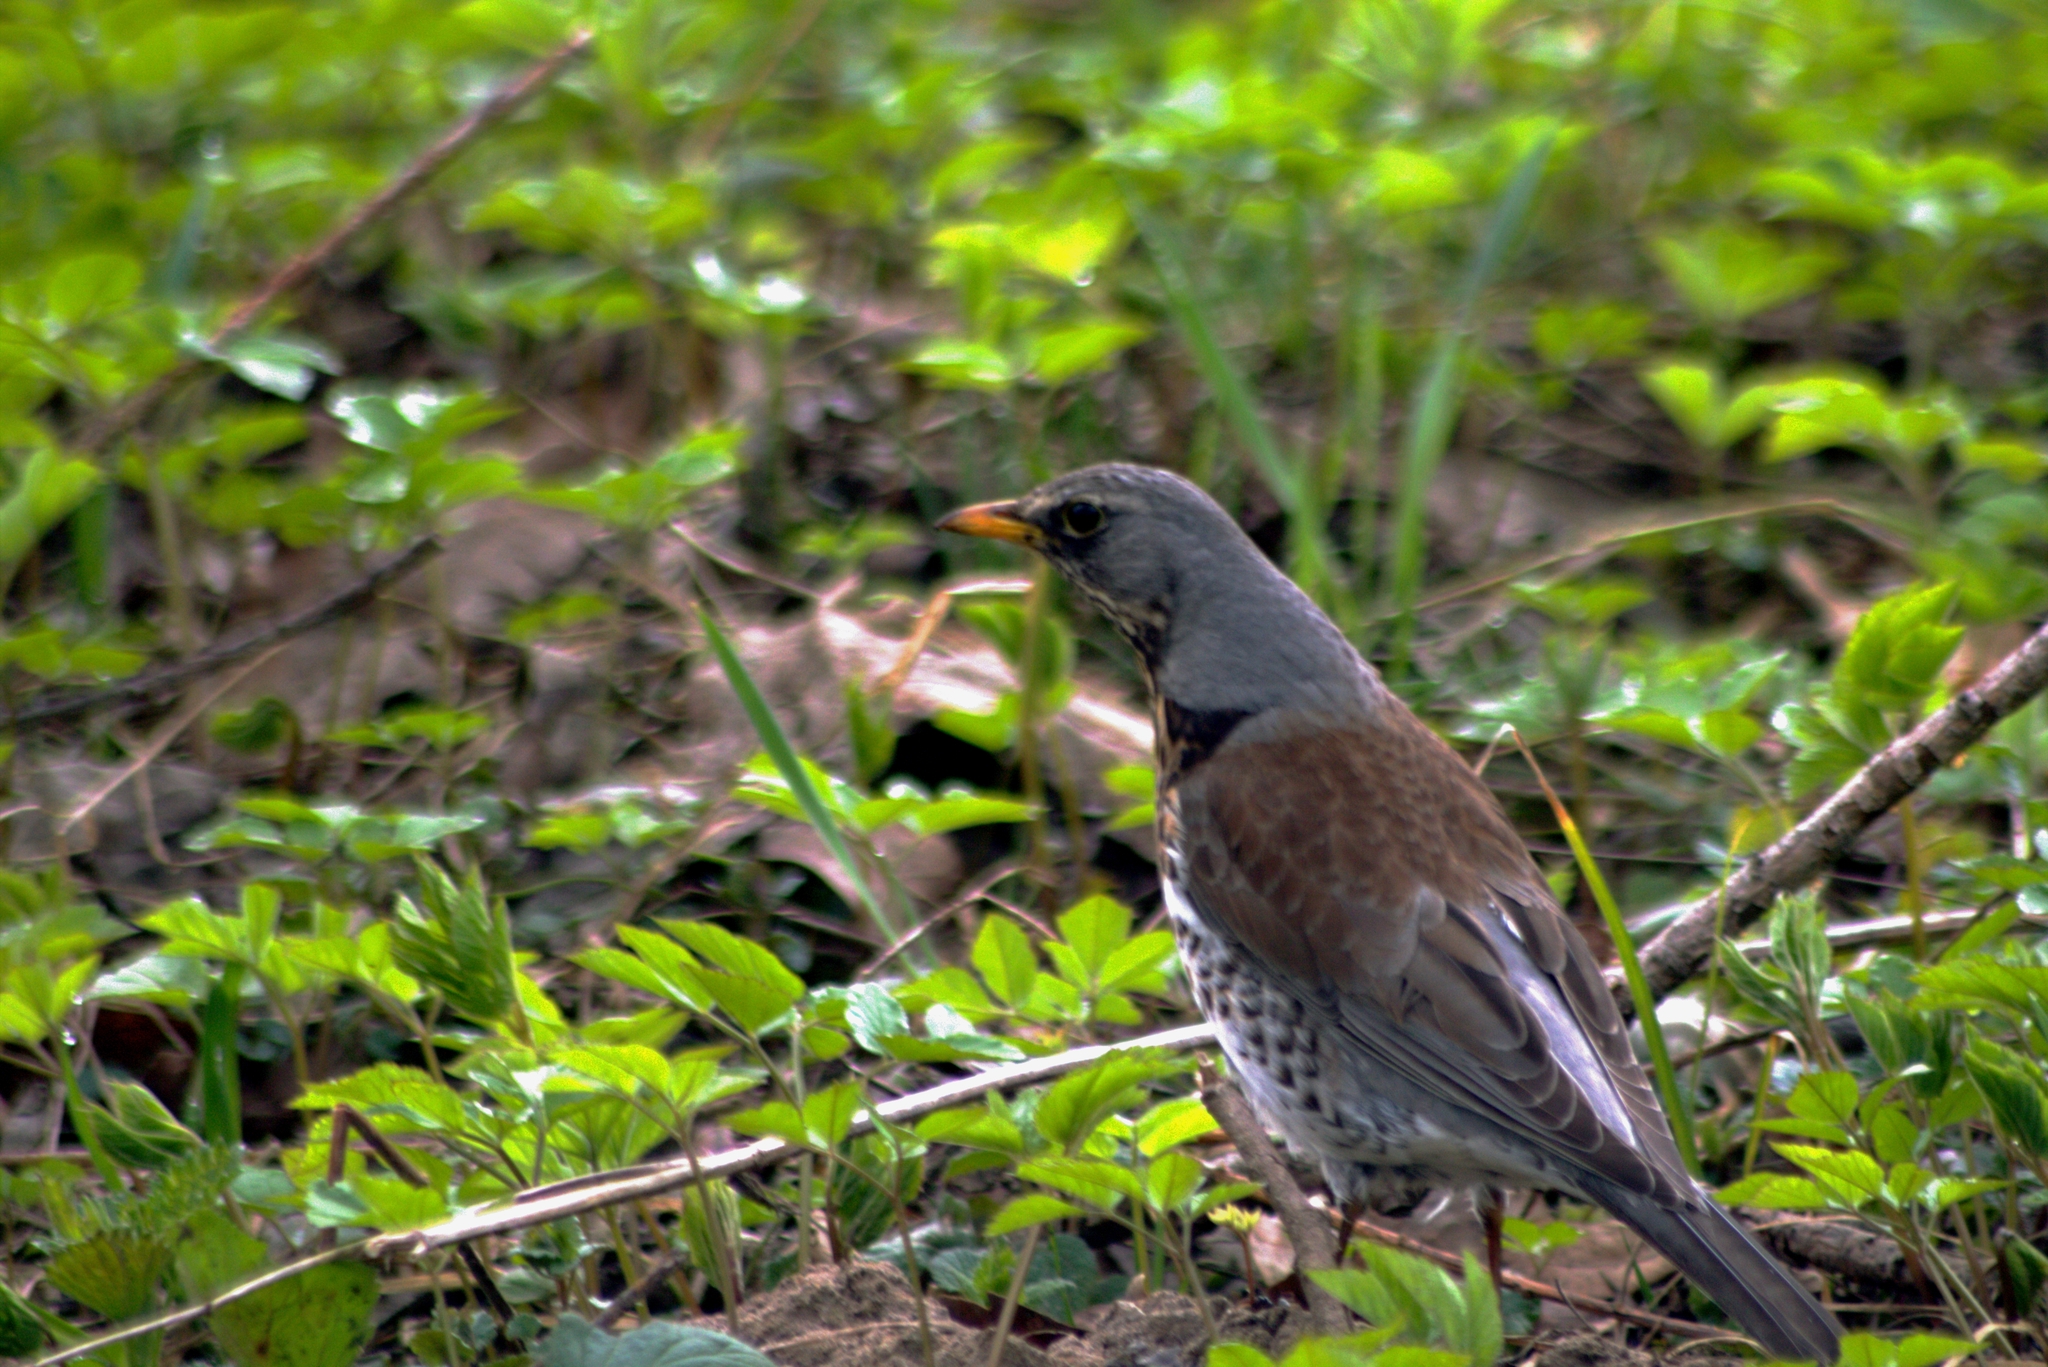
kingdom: Animalia
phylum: Chordata
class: Aves
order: Passeriformes
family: Turdidae
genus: Turdus
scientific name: Turdus pilaris
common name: Fieldfare
